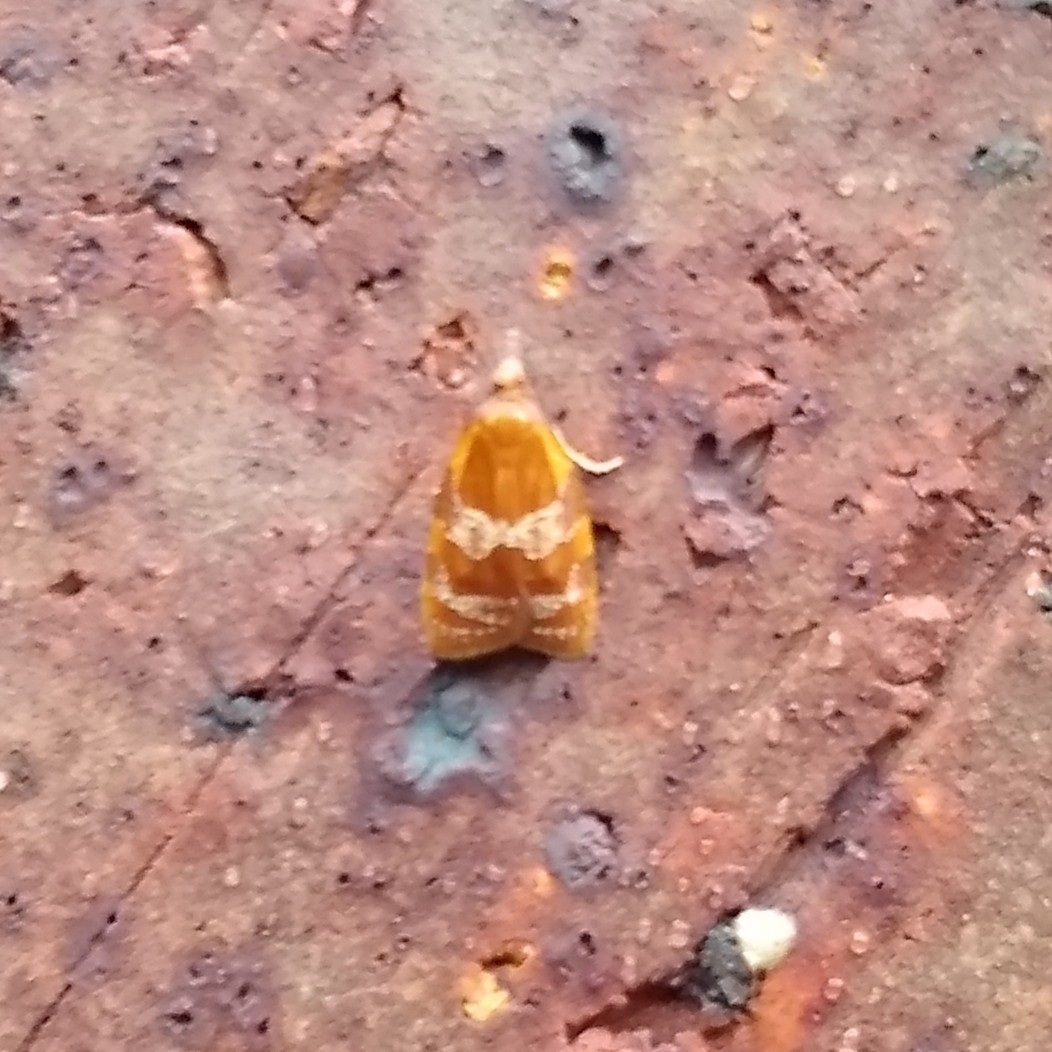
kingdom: Animalia
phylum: Arthropoda
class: Insecta
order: Lepidoptera
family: Tortricidae
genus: Cenopis
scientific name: Cenopis diluticostana
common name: Spring dead-leaf roller moth
